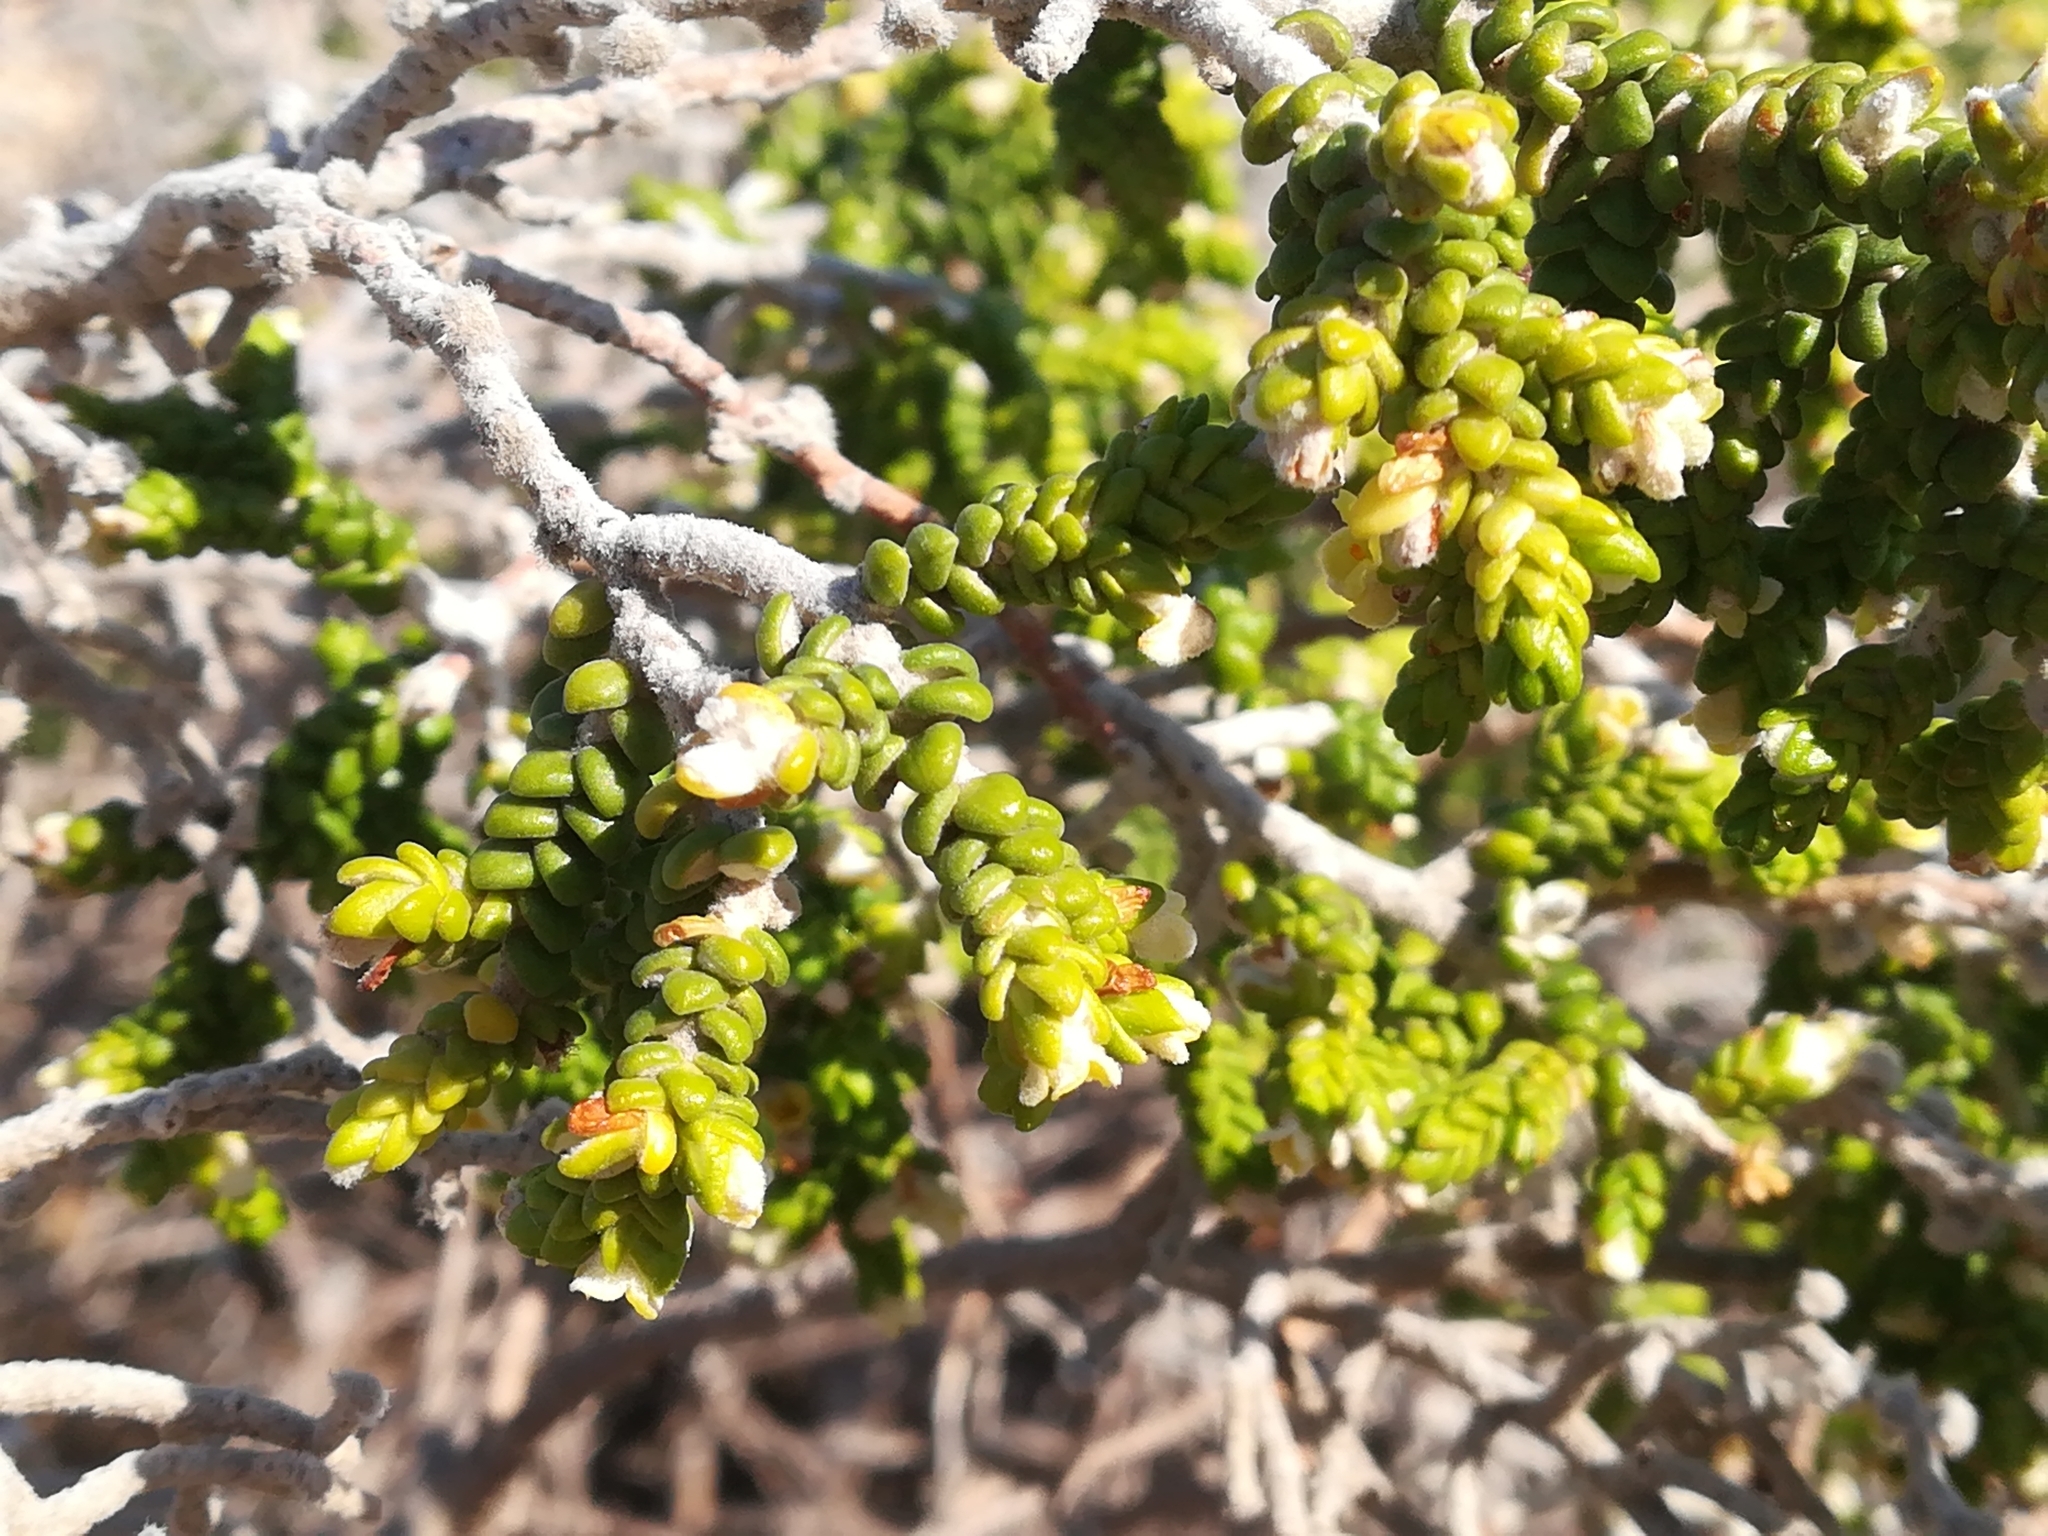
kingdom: Plantae
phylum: Tracheophyta
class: Magnoliopsida
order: Malvales
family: Thymelaeaceae
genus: Thymelaea
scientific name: Thymelaea hirsuta
